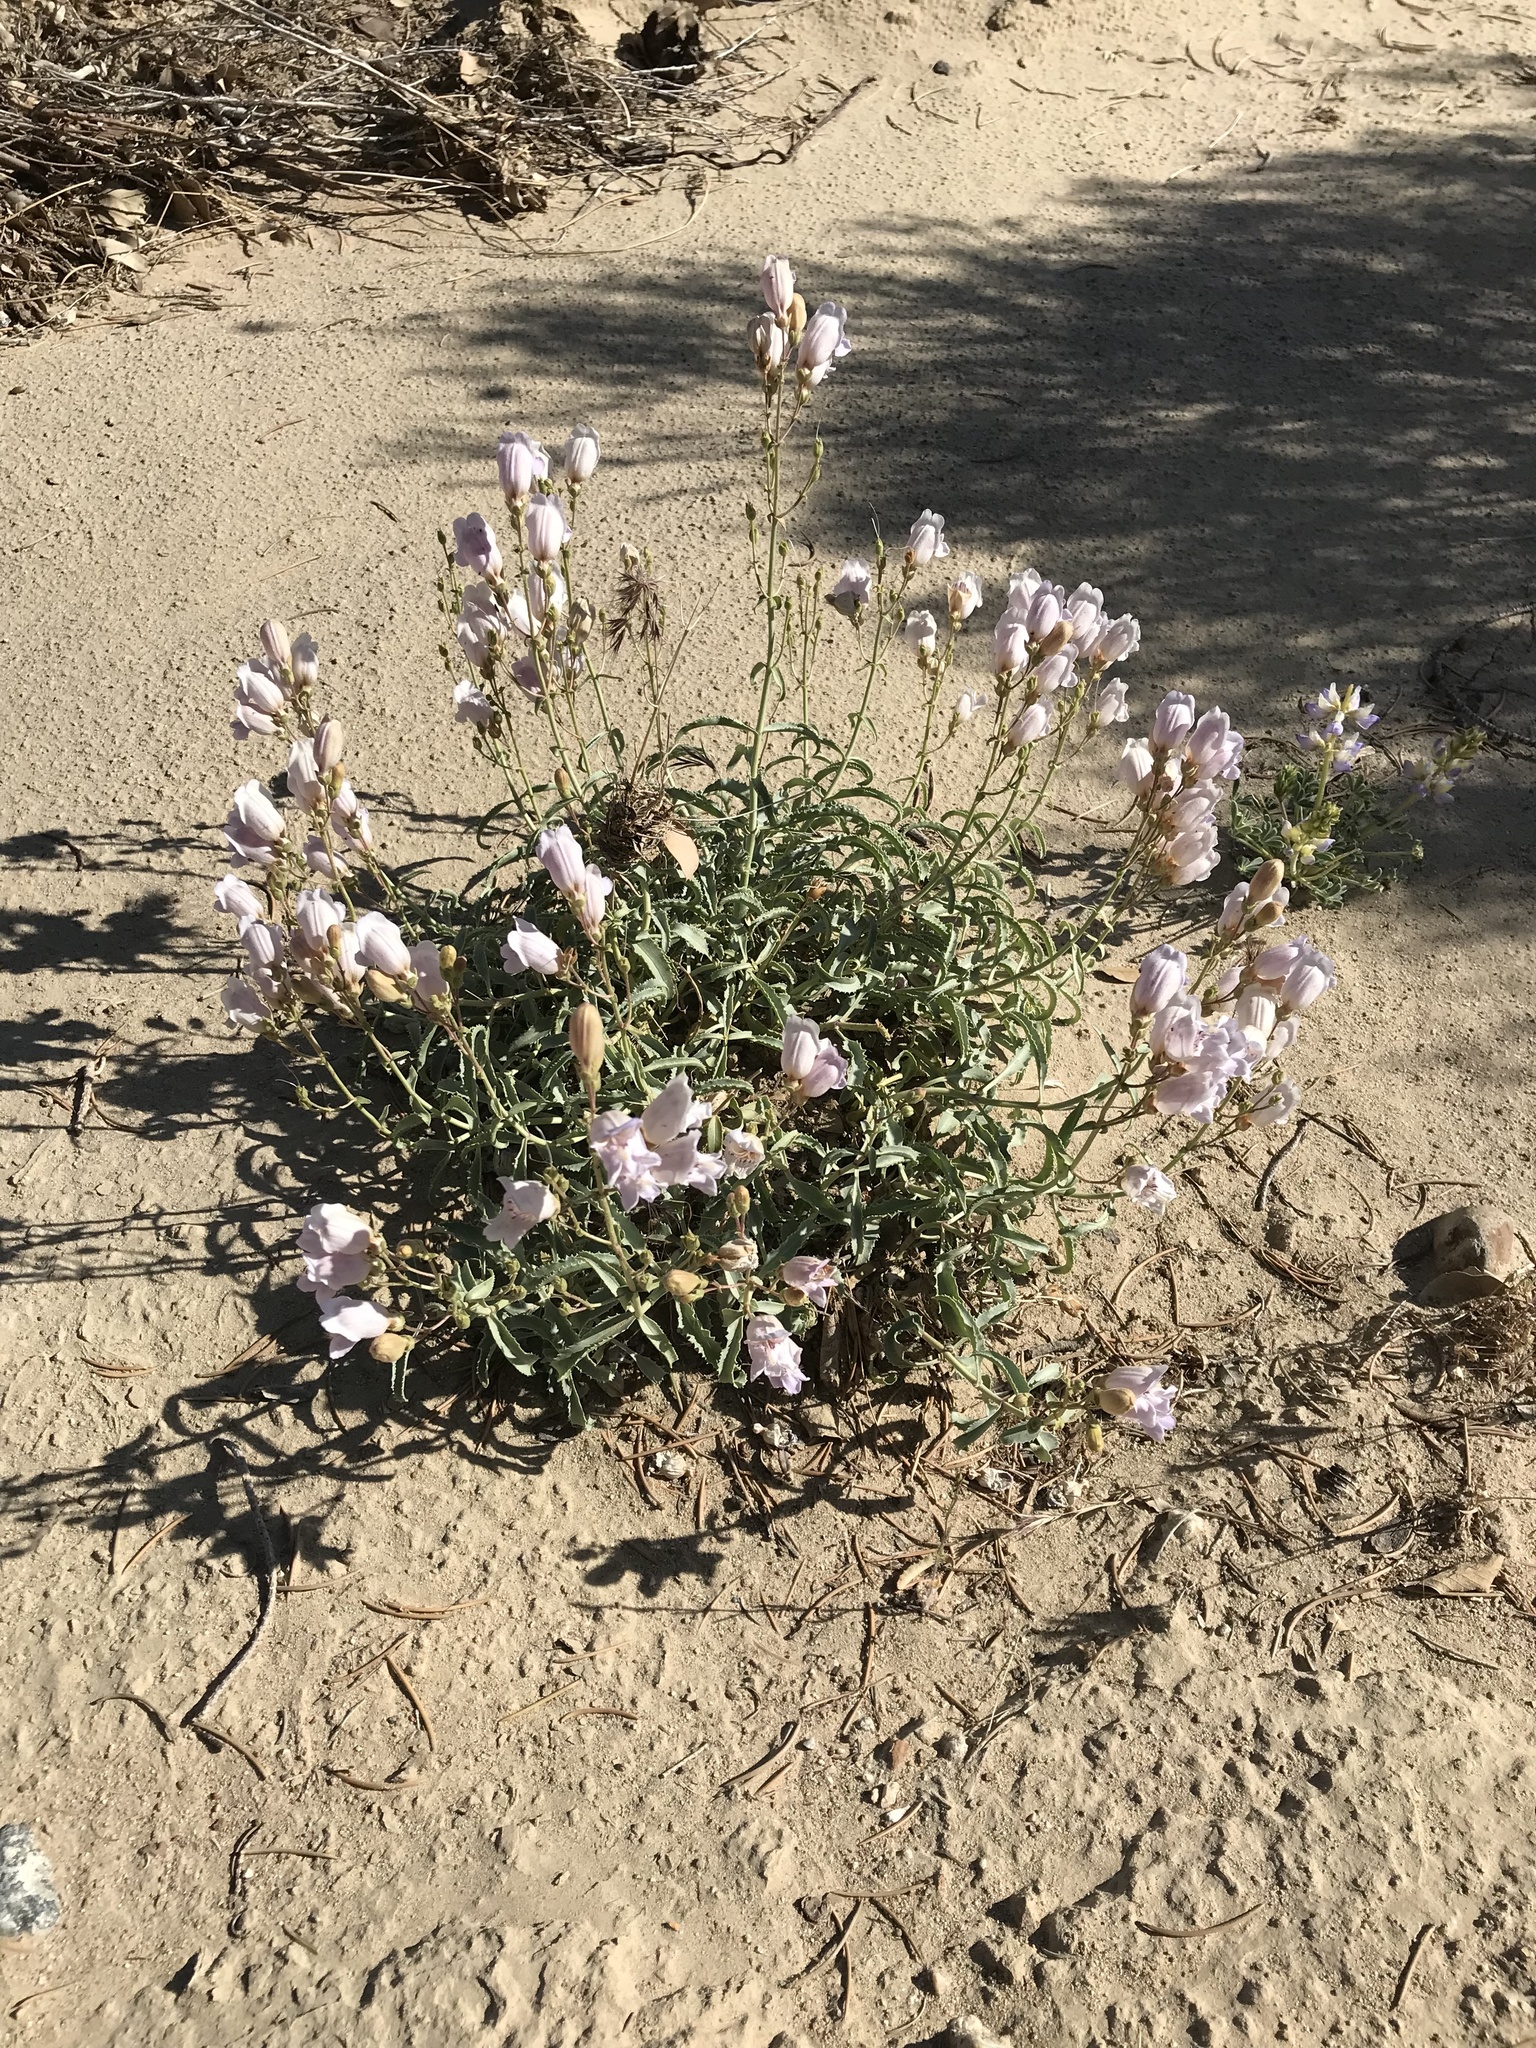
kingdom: Plantae
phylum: Tracheophyta
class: Magnoliopsida
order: Lamiales
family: Plantaginaceae
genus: Penstemon
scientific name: Penstemon grinnellii
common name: Grinnell's beardtongue
